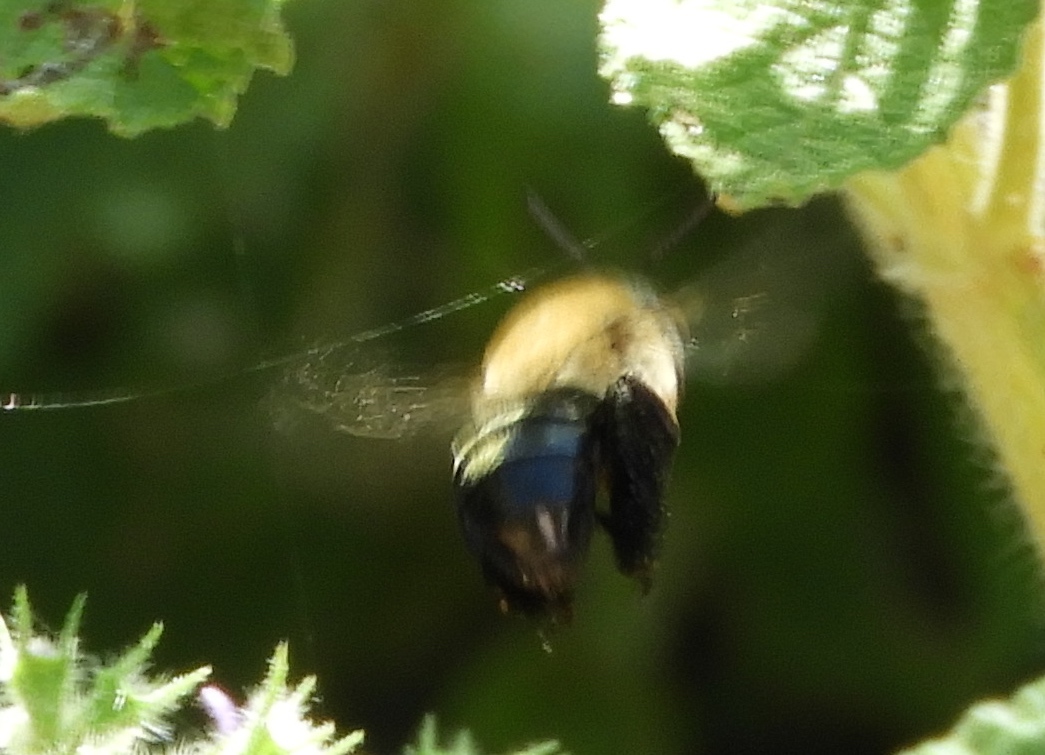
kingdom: Animalia
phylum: Arthropoda
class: Insecta
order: Hymenoptera
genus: Paracentris
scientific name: Paracentris
